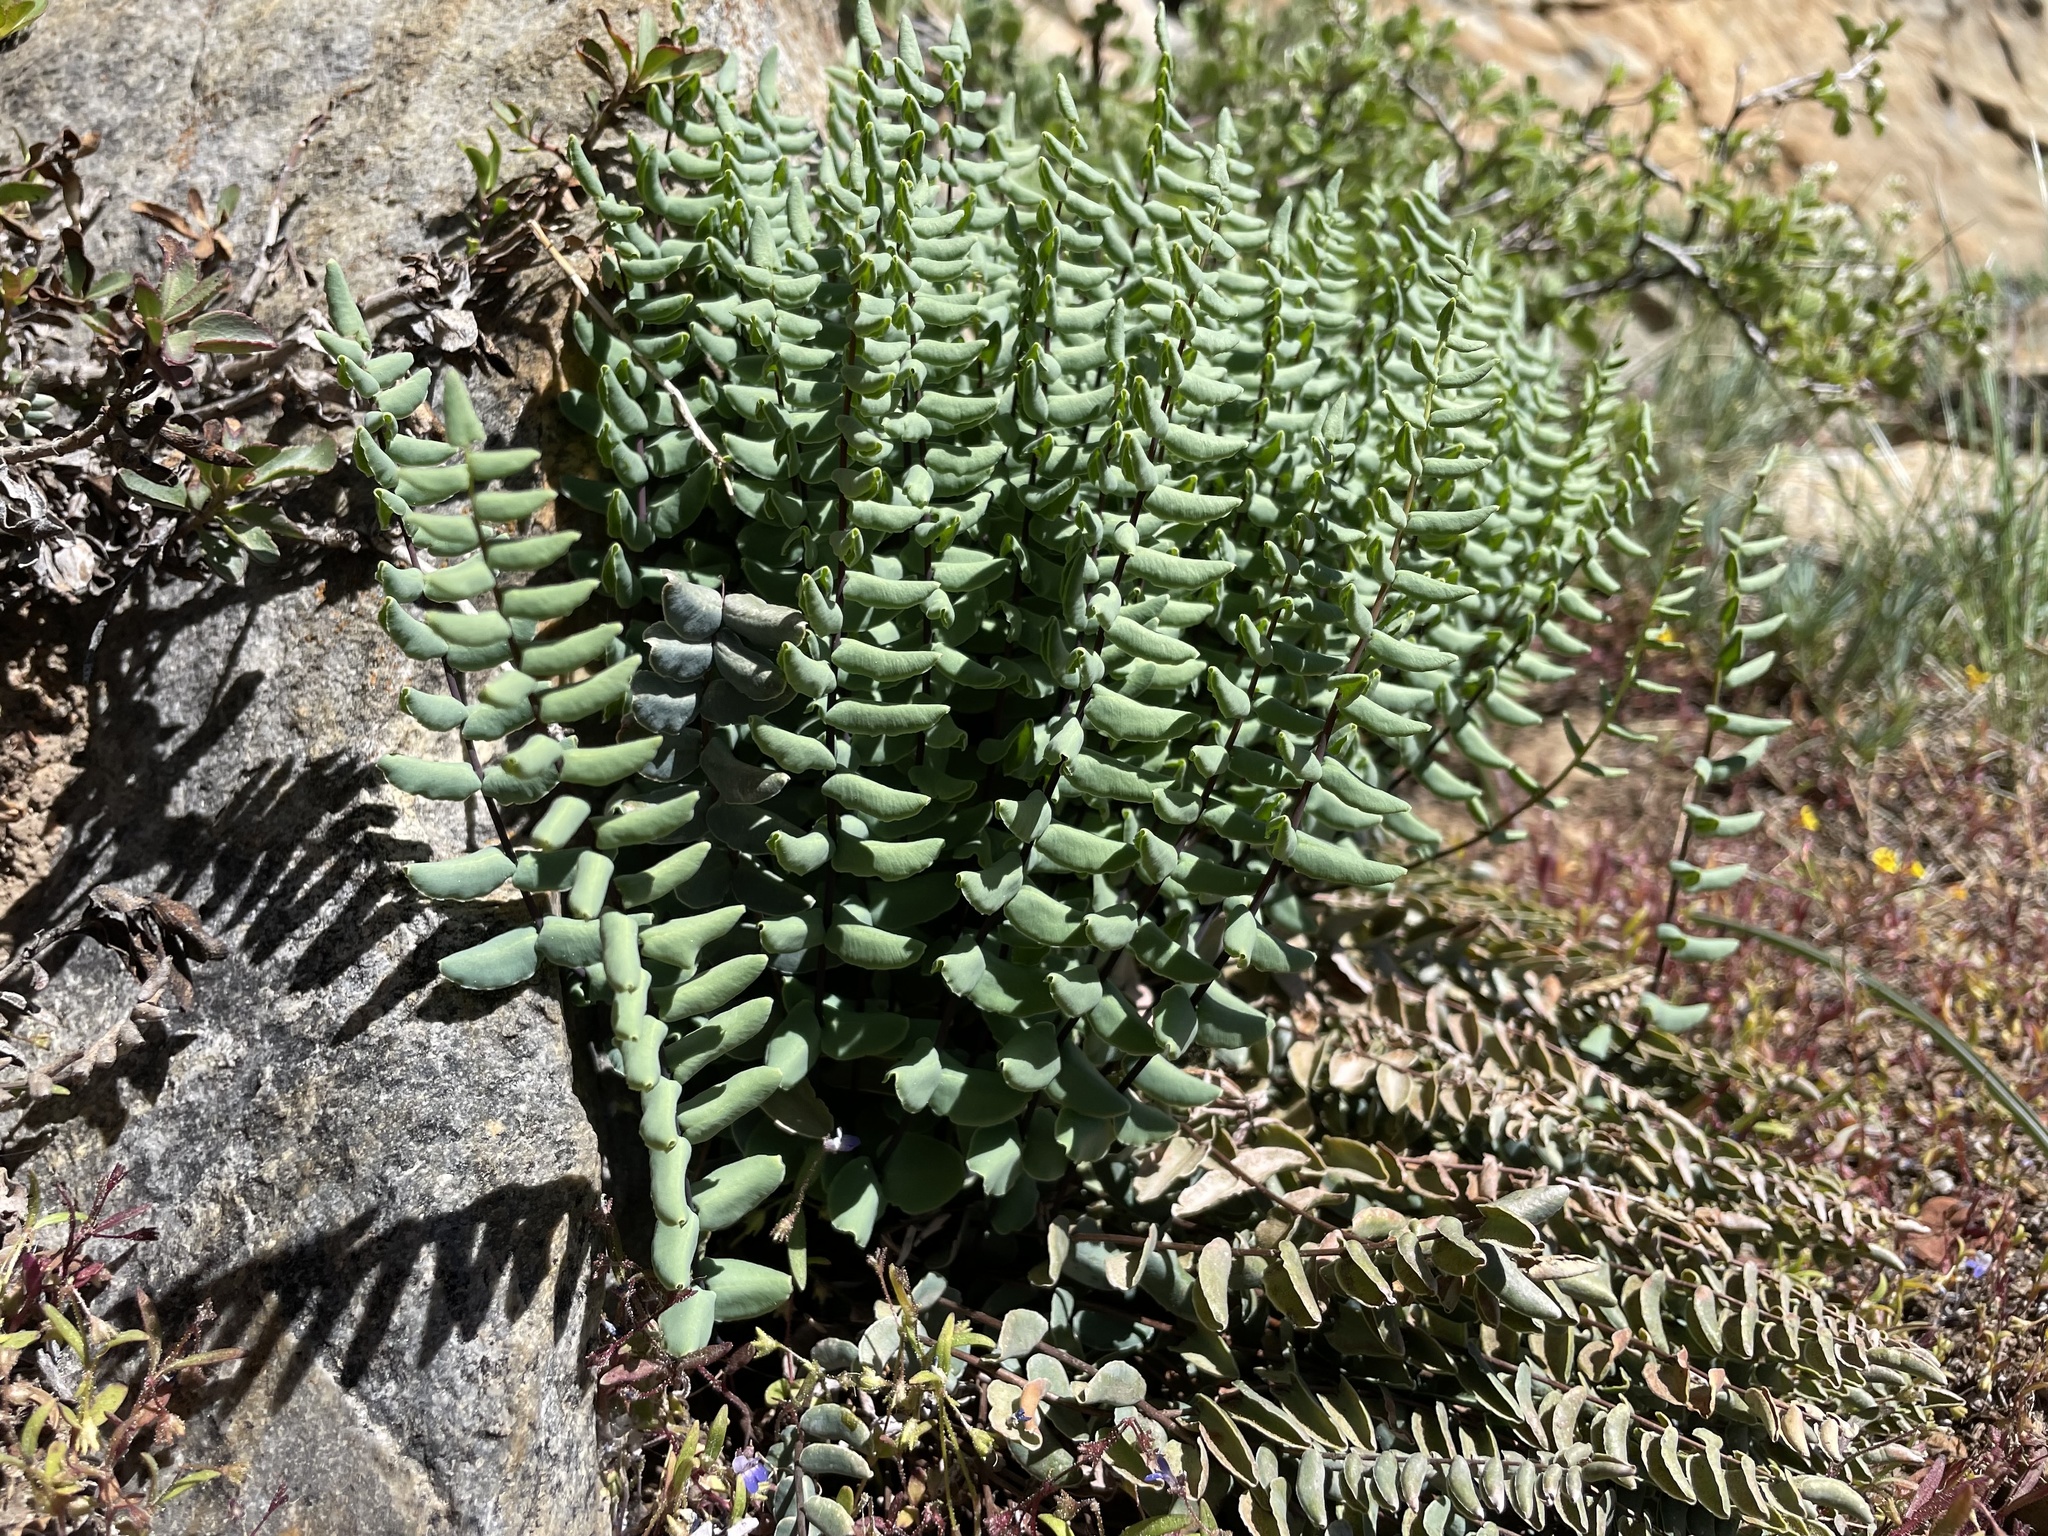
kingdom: Plantae
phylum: Tracheophyta
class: Polypodiopsida
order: Polypodiales
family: Pteridaceae
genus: Pellaea
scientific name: Pellaea bridgesii
